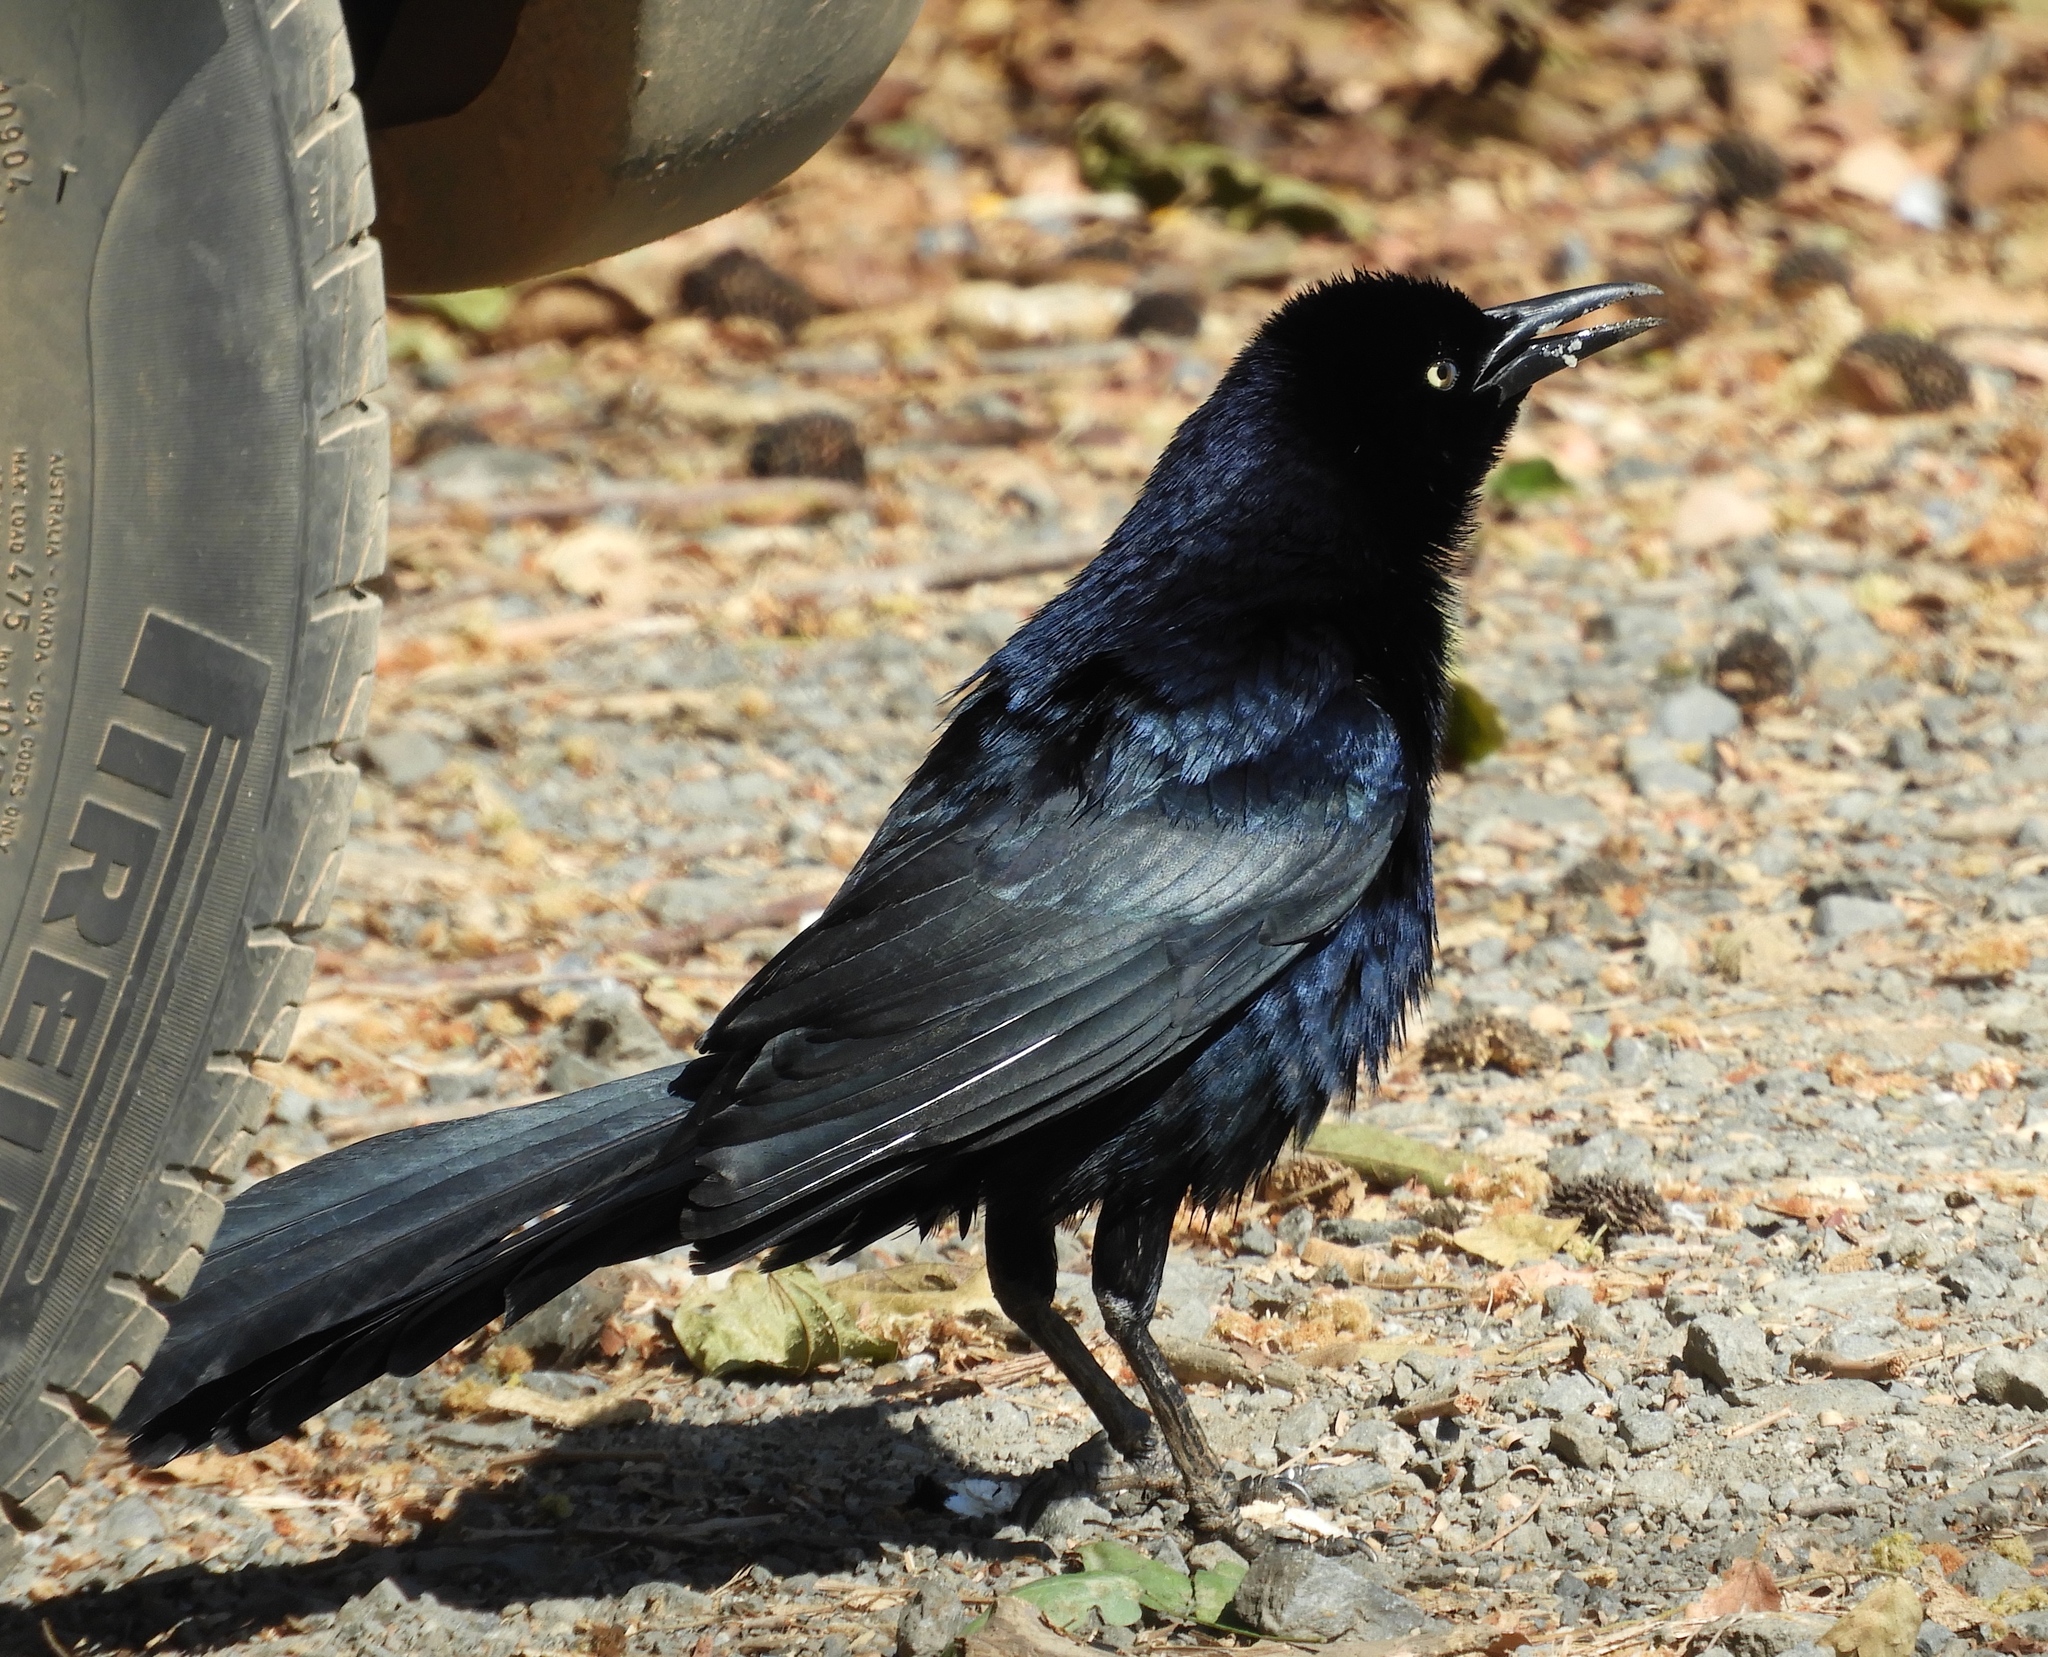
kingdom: Animalia
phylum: Chordata
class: Aves
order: Passeriformes
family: Icteridae
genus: Quiscalus
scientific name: Quiscalus mexicanus
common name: Great-tailed grackle
